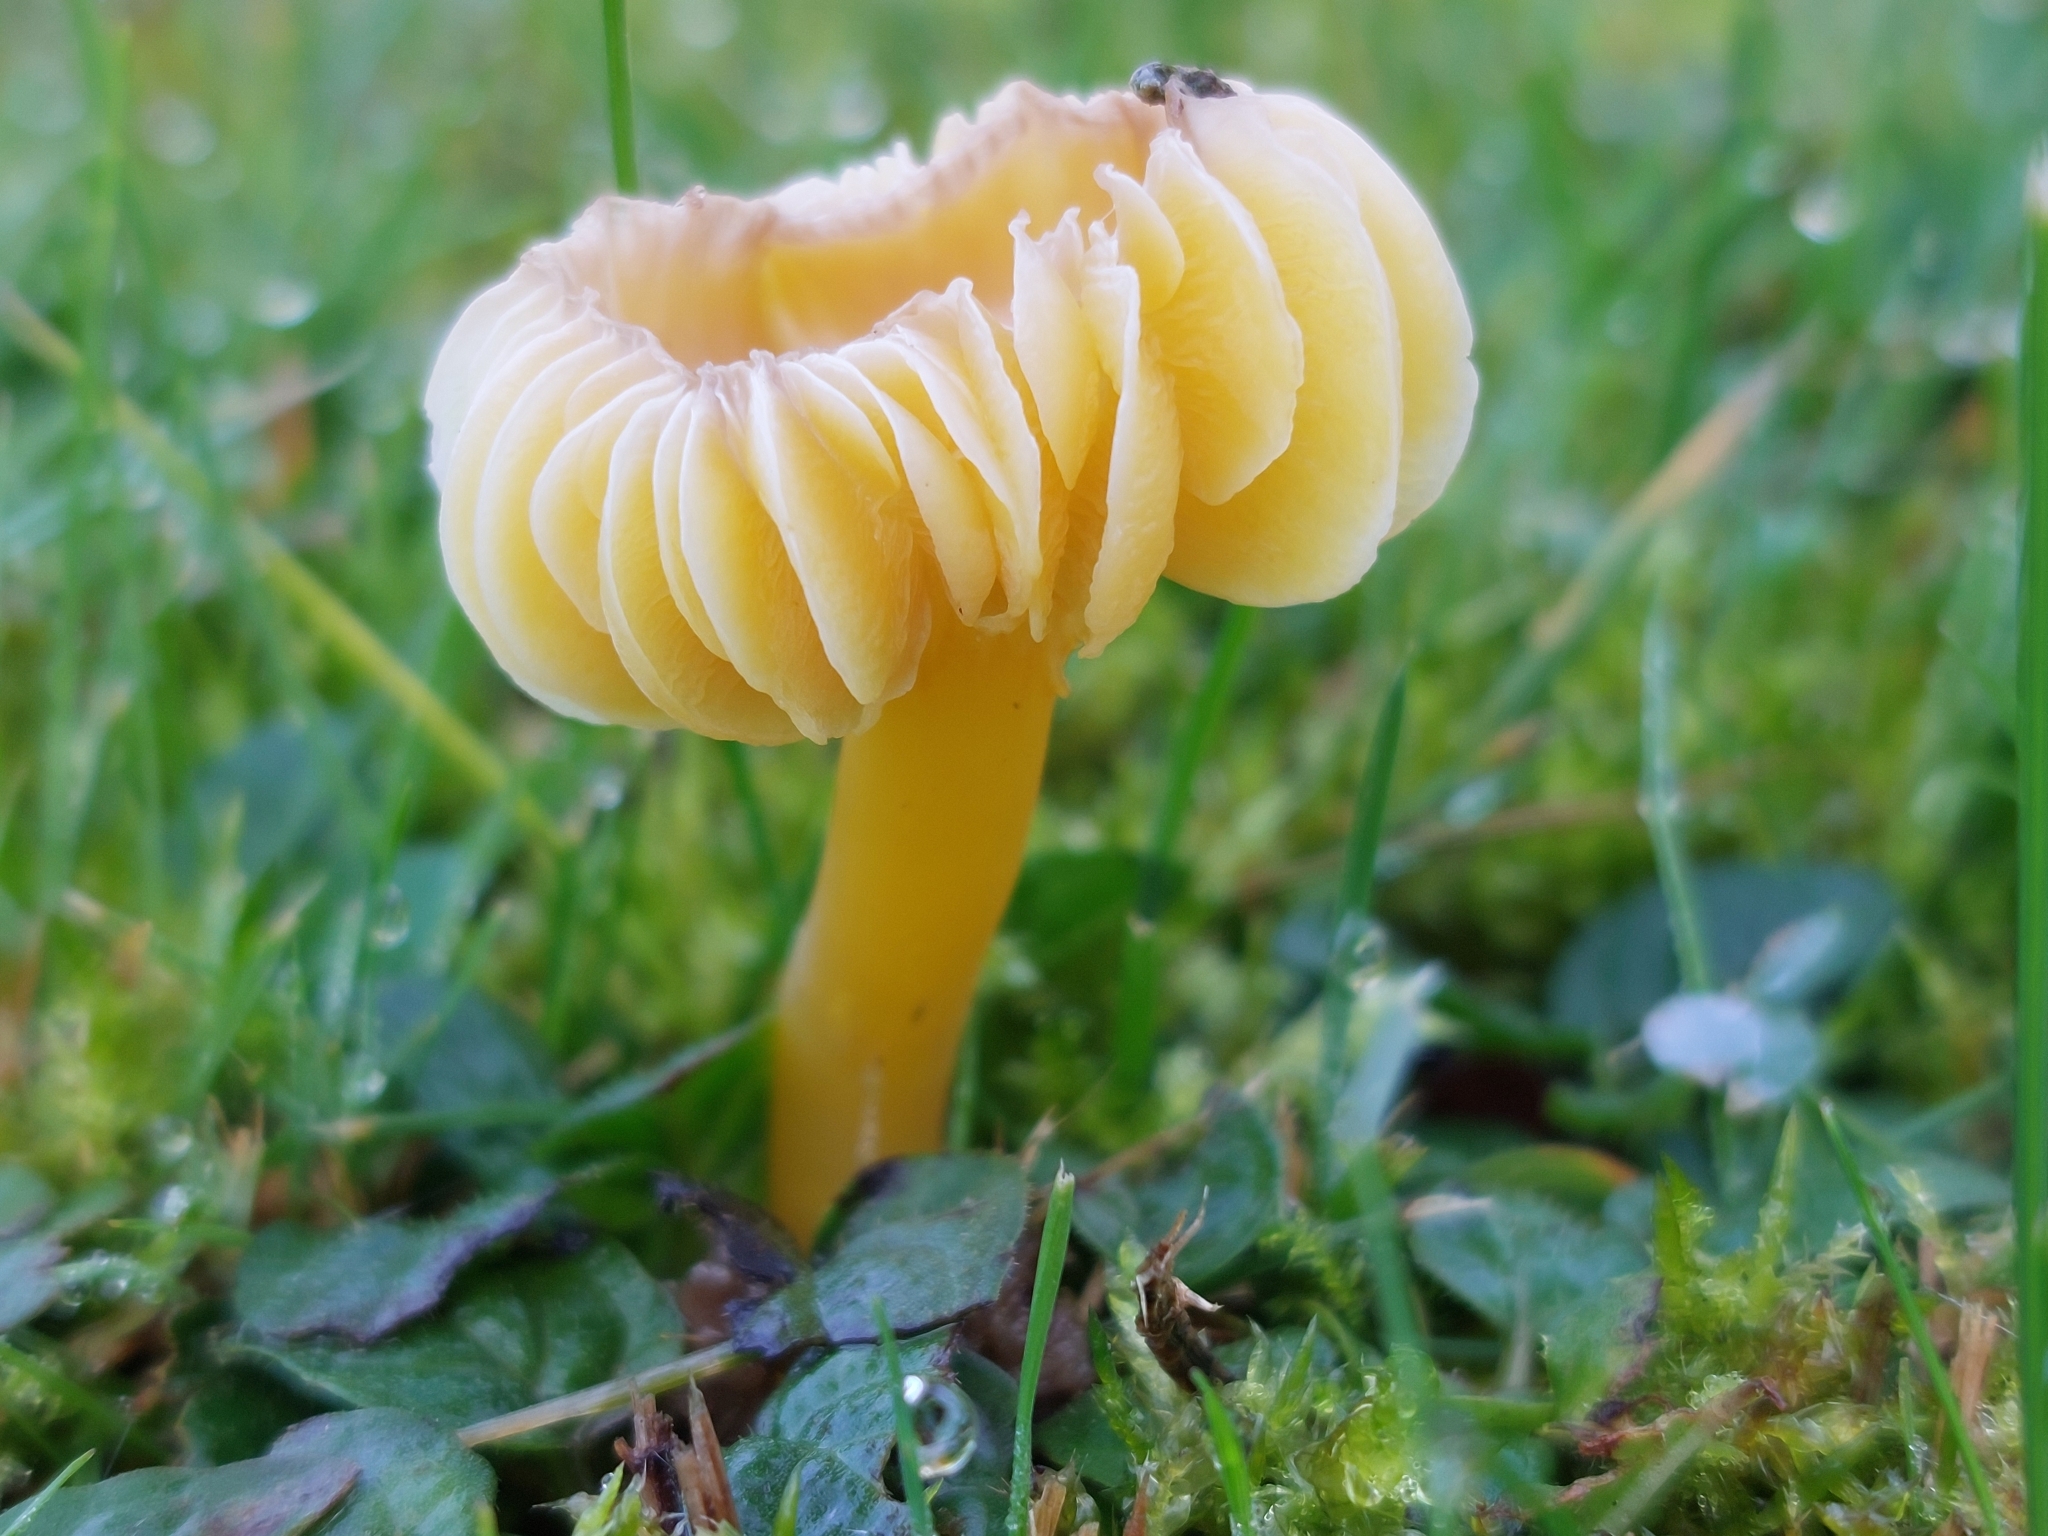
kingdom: Fungi
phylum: Basidiomycota
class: Agaricomycetes
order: Agaricales
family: Hygrophoraceae
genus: Hygrocybe
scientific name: Hygrocybe quieta
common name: Oily waxcap
